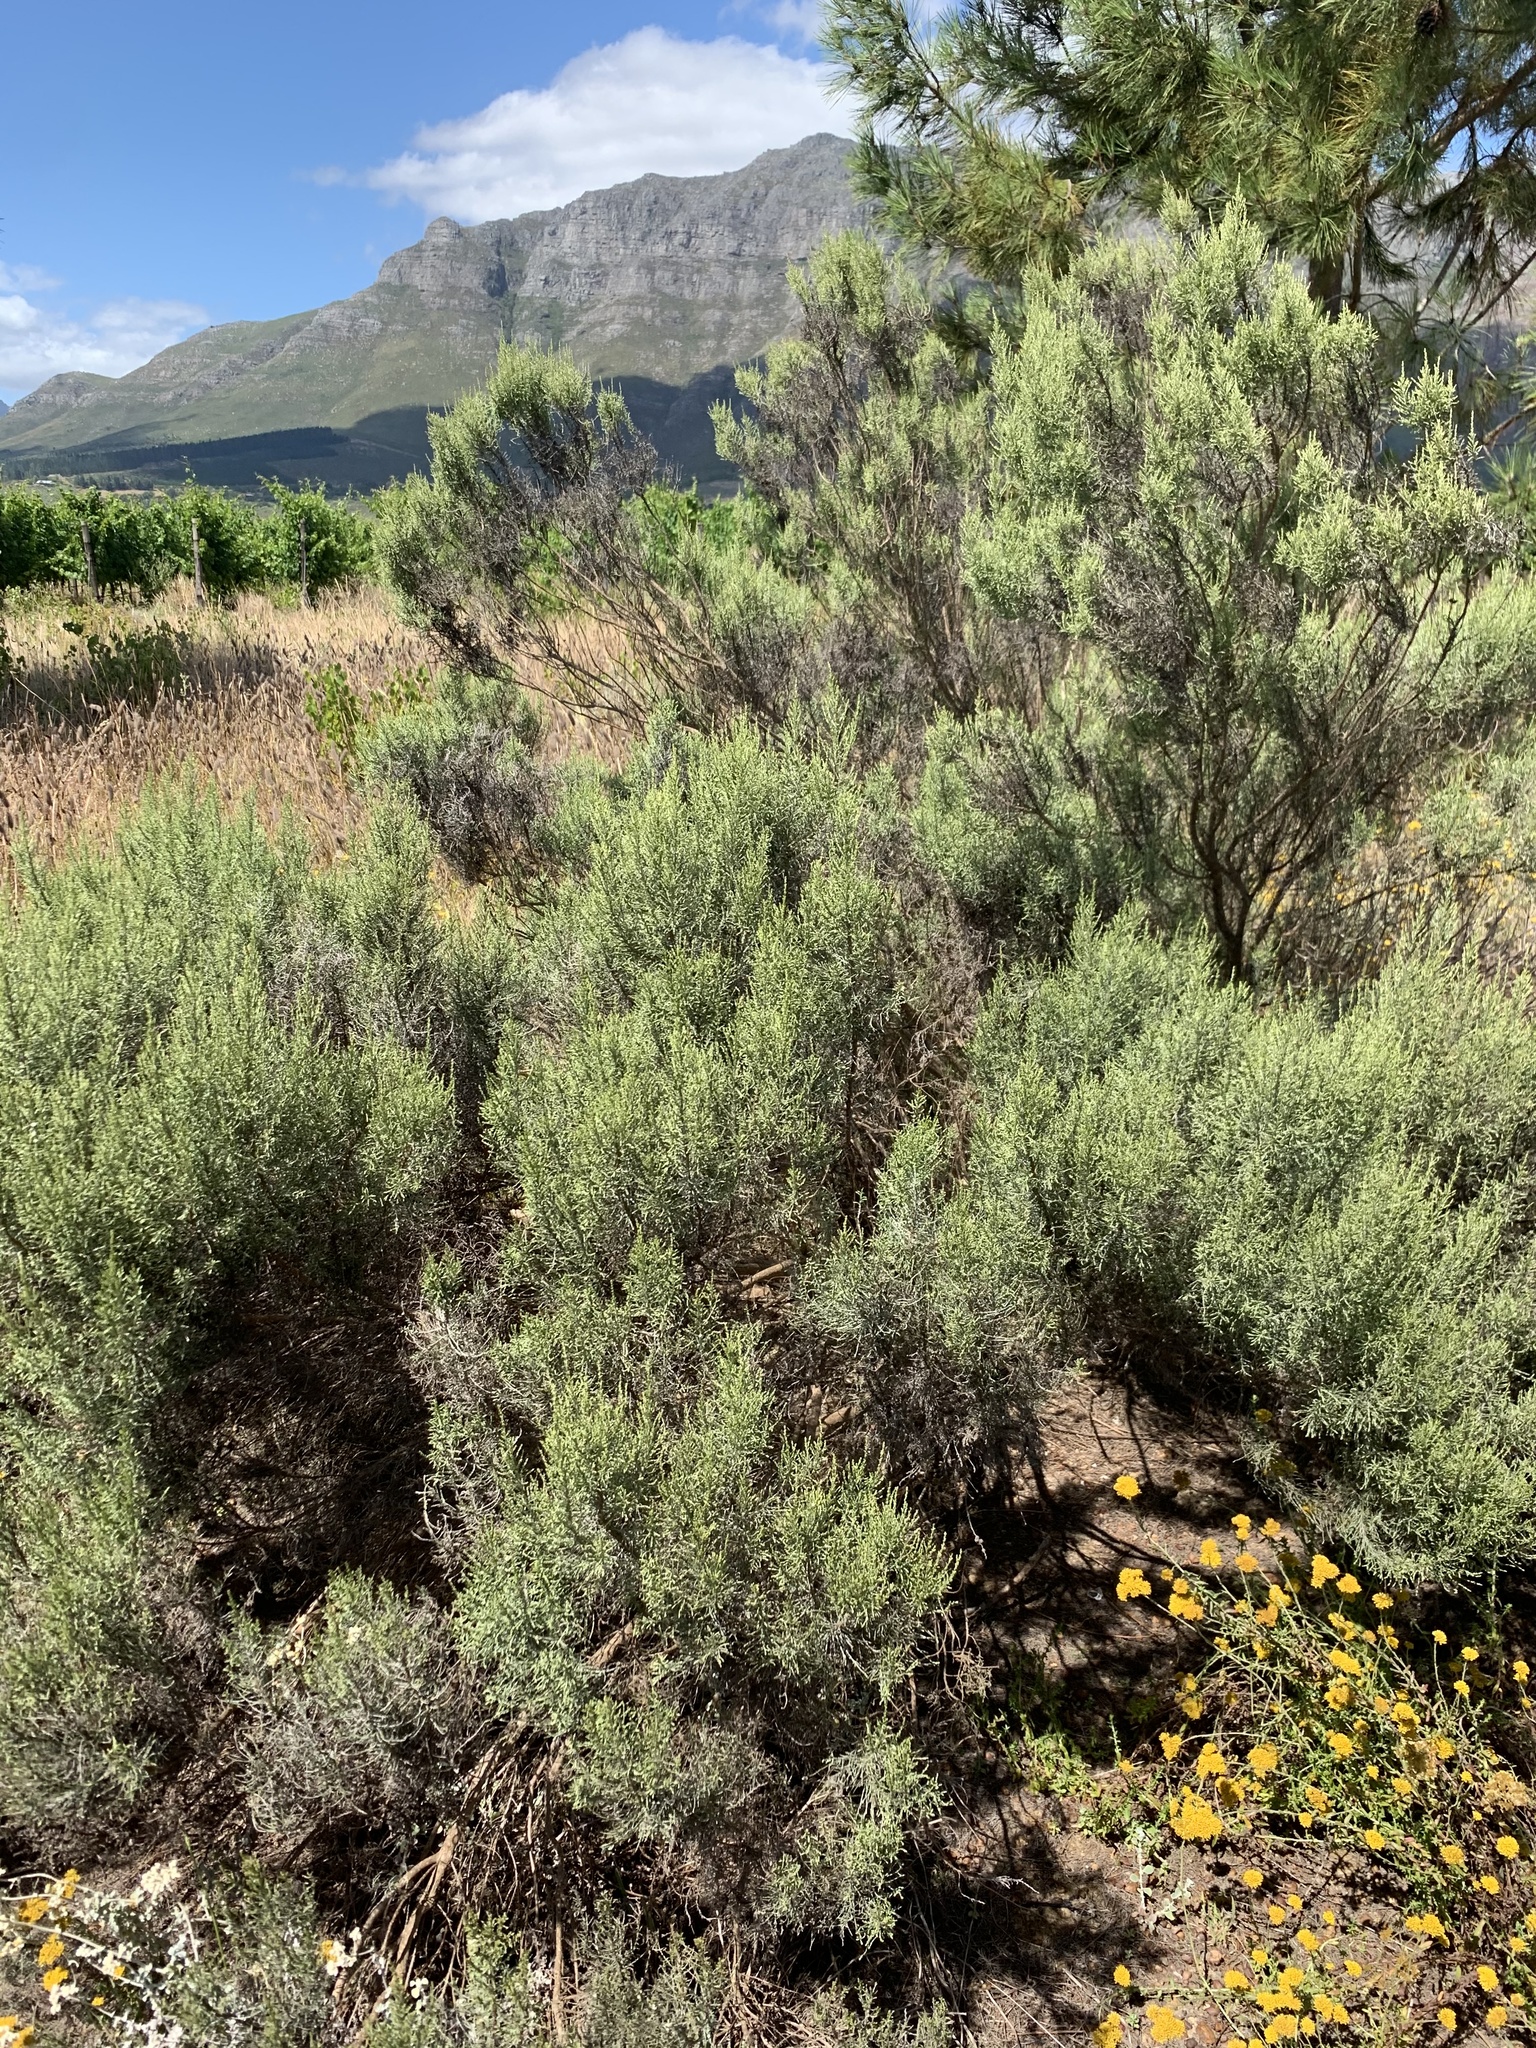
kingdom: Plantae
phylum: Tracheophyta
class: Magnoliopsida
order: Asterales
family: Asteraceae
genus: Dicerothamnus
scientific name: Dicerothamnus rhinocerotis
